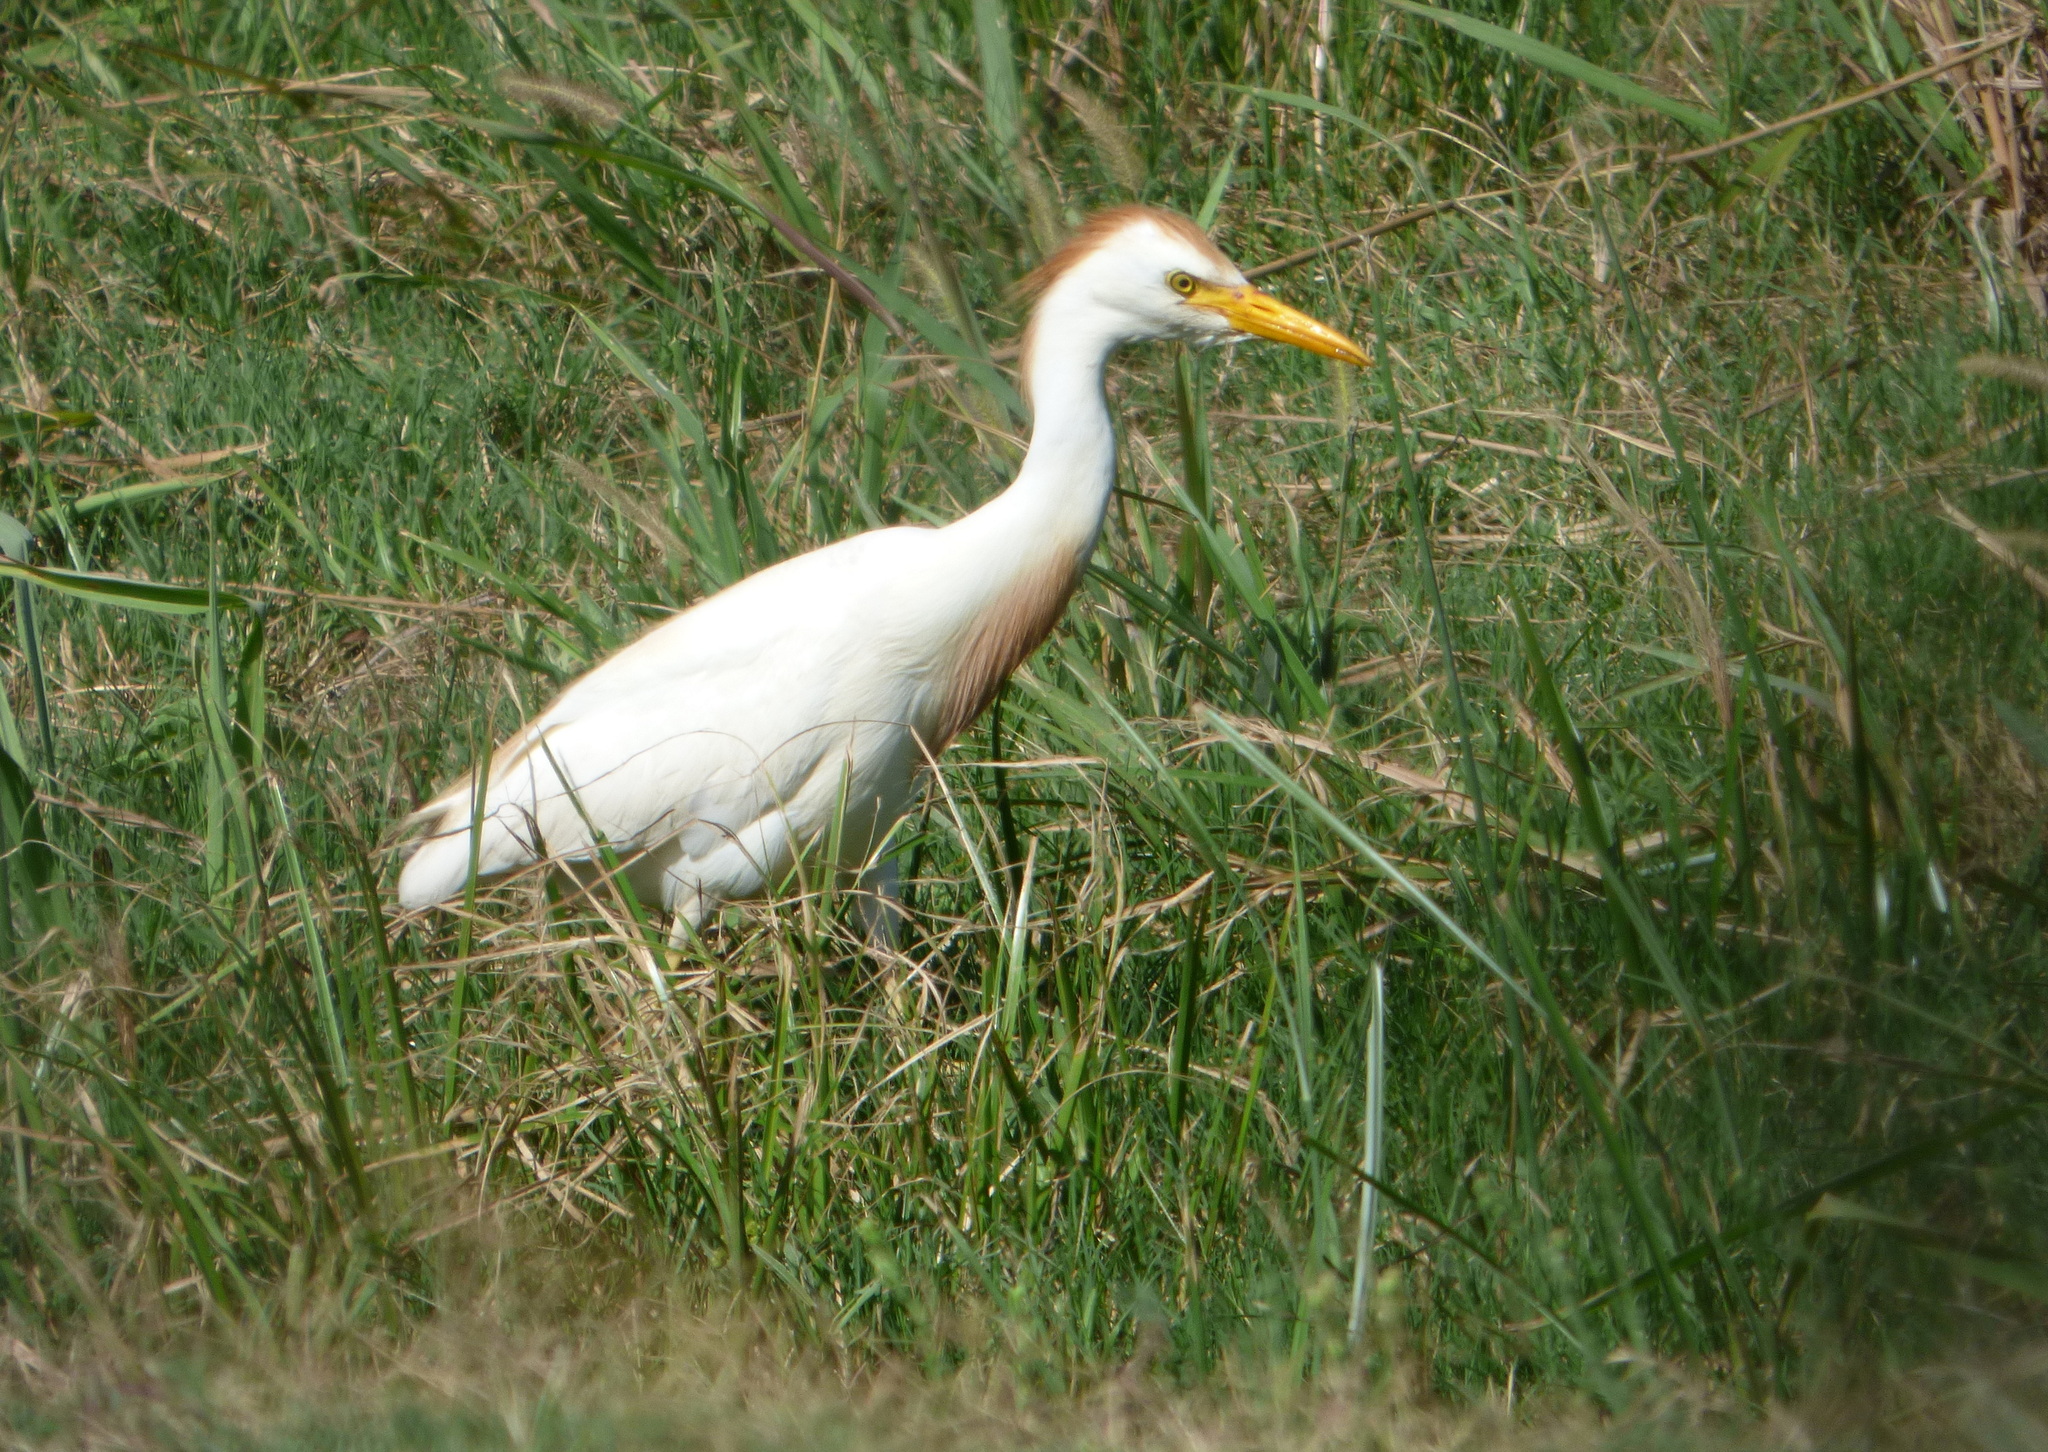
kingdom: Animalia
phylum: Chordata
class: Aves
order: Pelecaniformes
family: Ardeidae
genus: Bubulcus
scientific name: Bubulcus ibis
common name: Cattle egret
